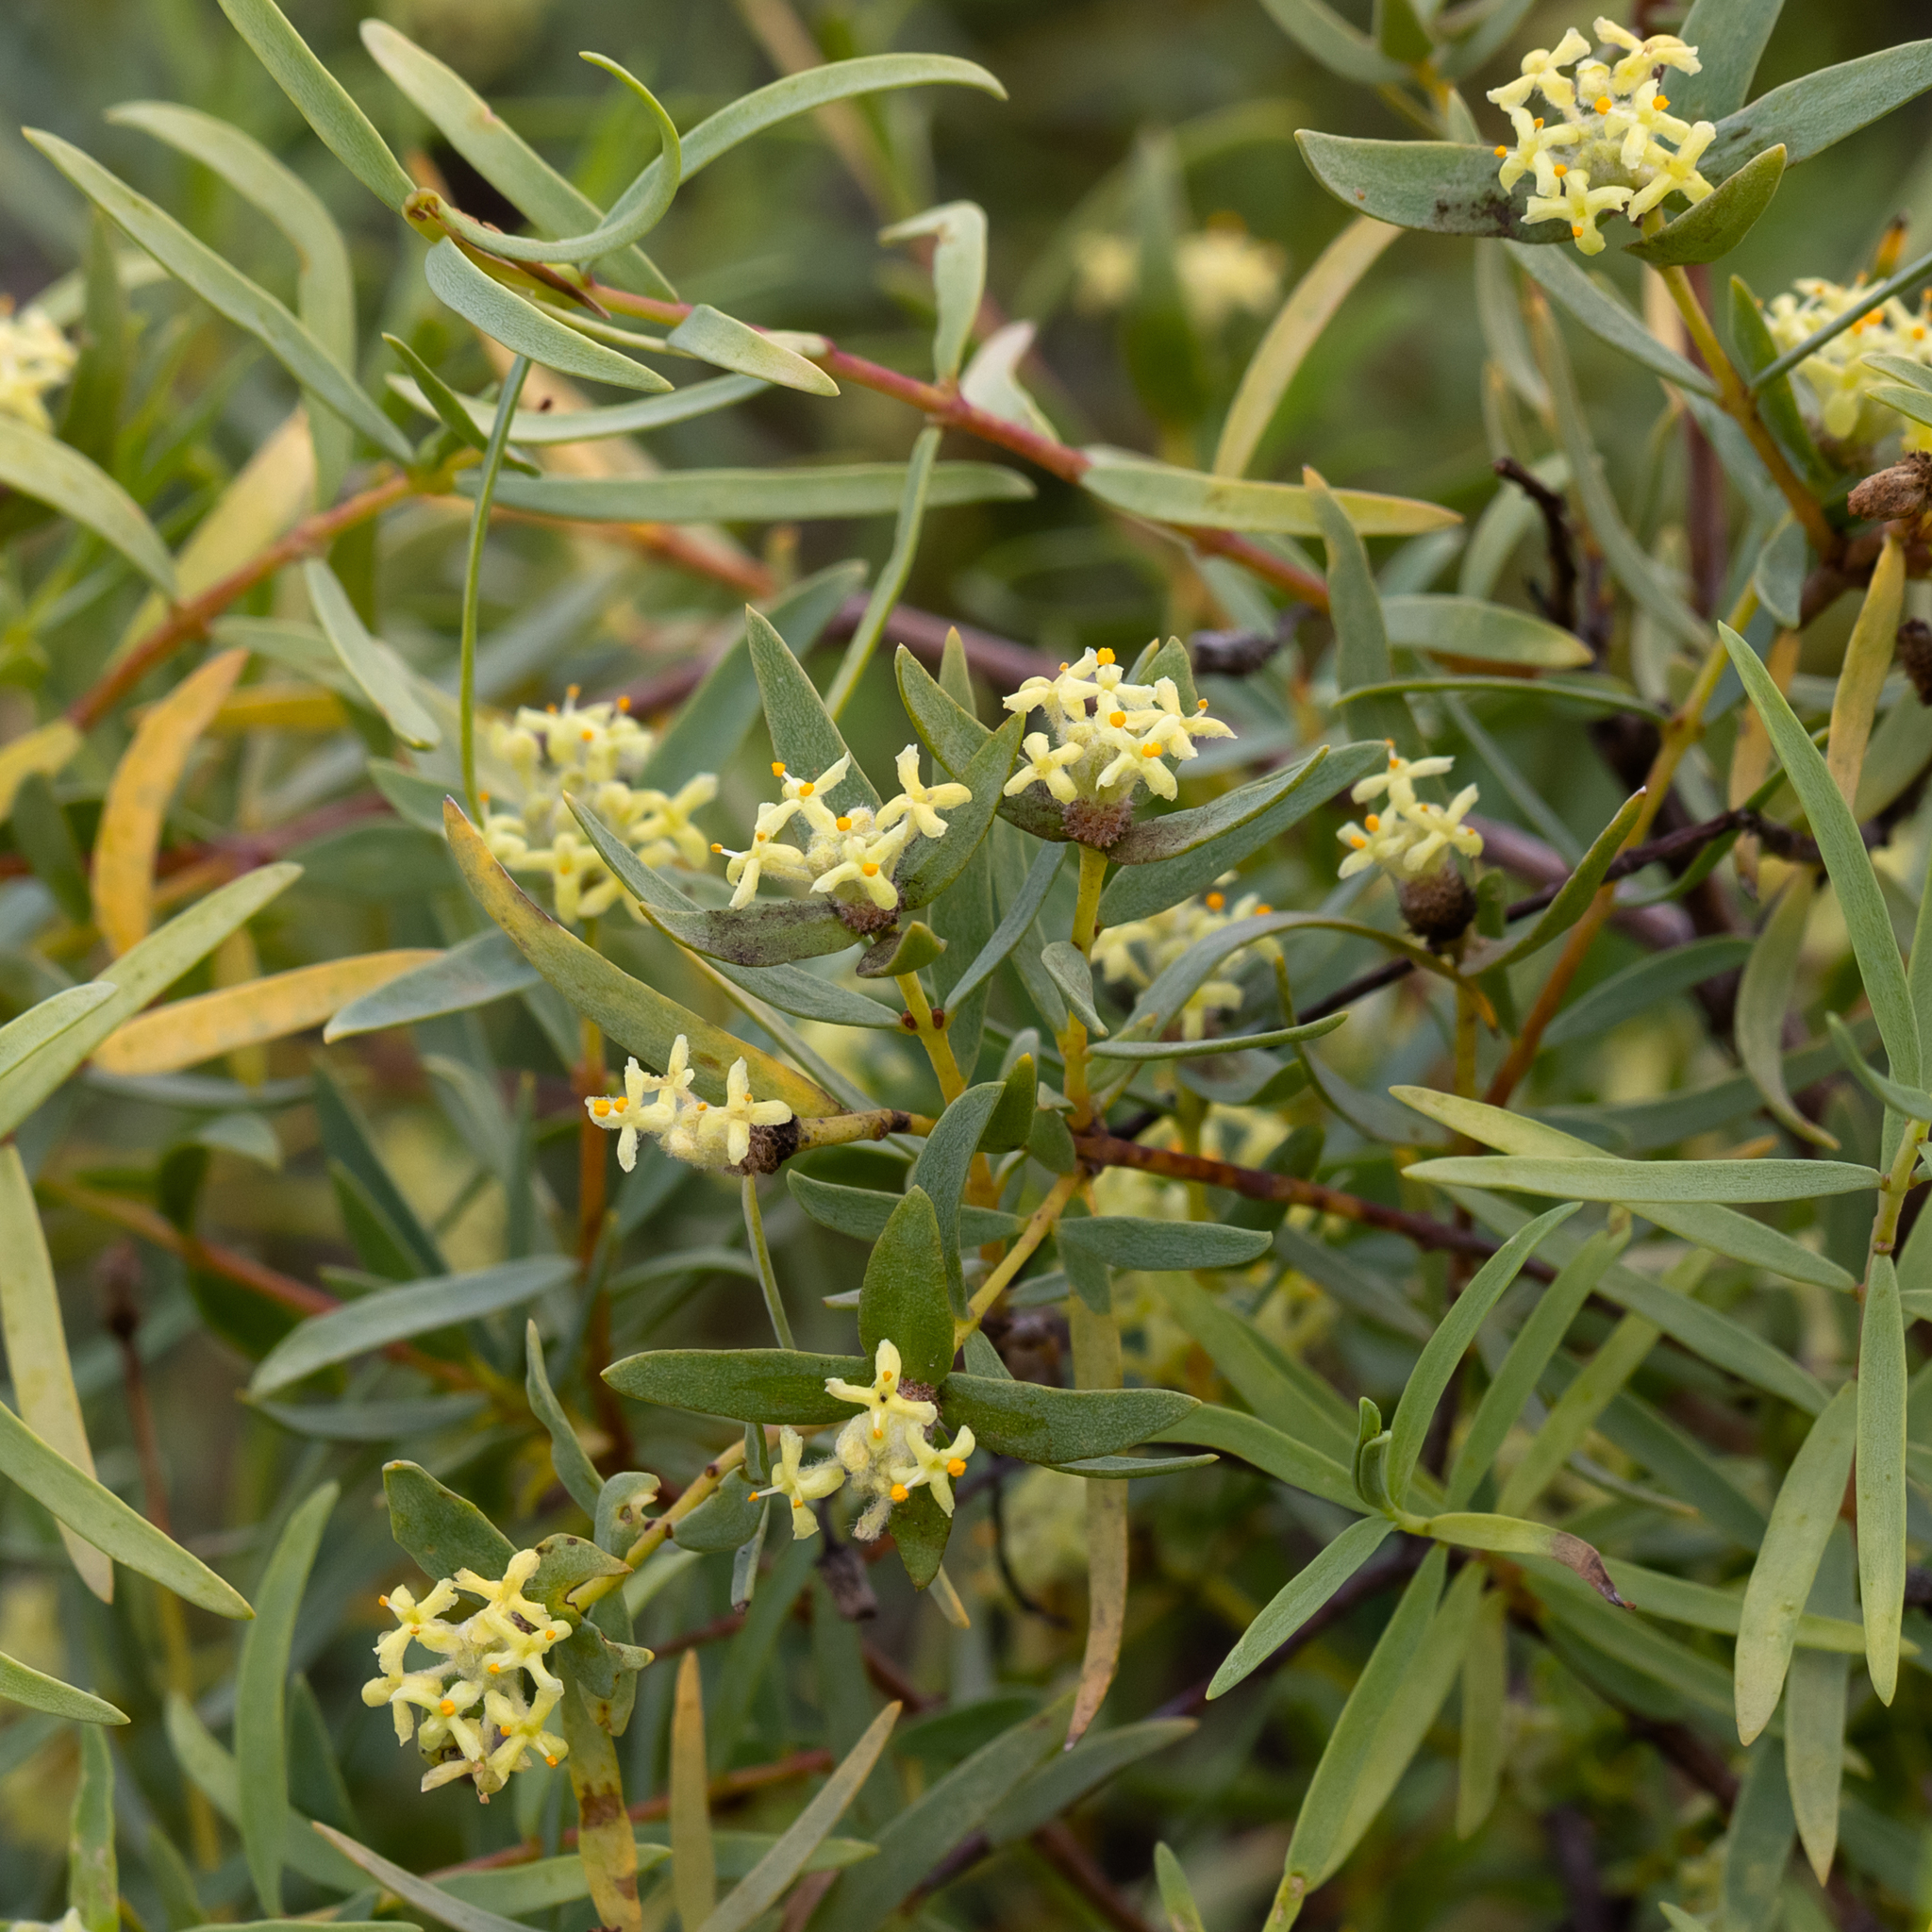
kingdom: Plantae
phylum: Tracheophyta
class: Magnoliopsida
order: Malvales
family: Thymelaeaceae
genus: Pimelea
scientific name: Pimelea microcephala
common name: Mallee riceflower
